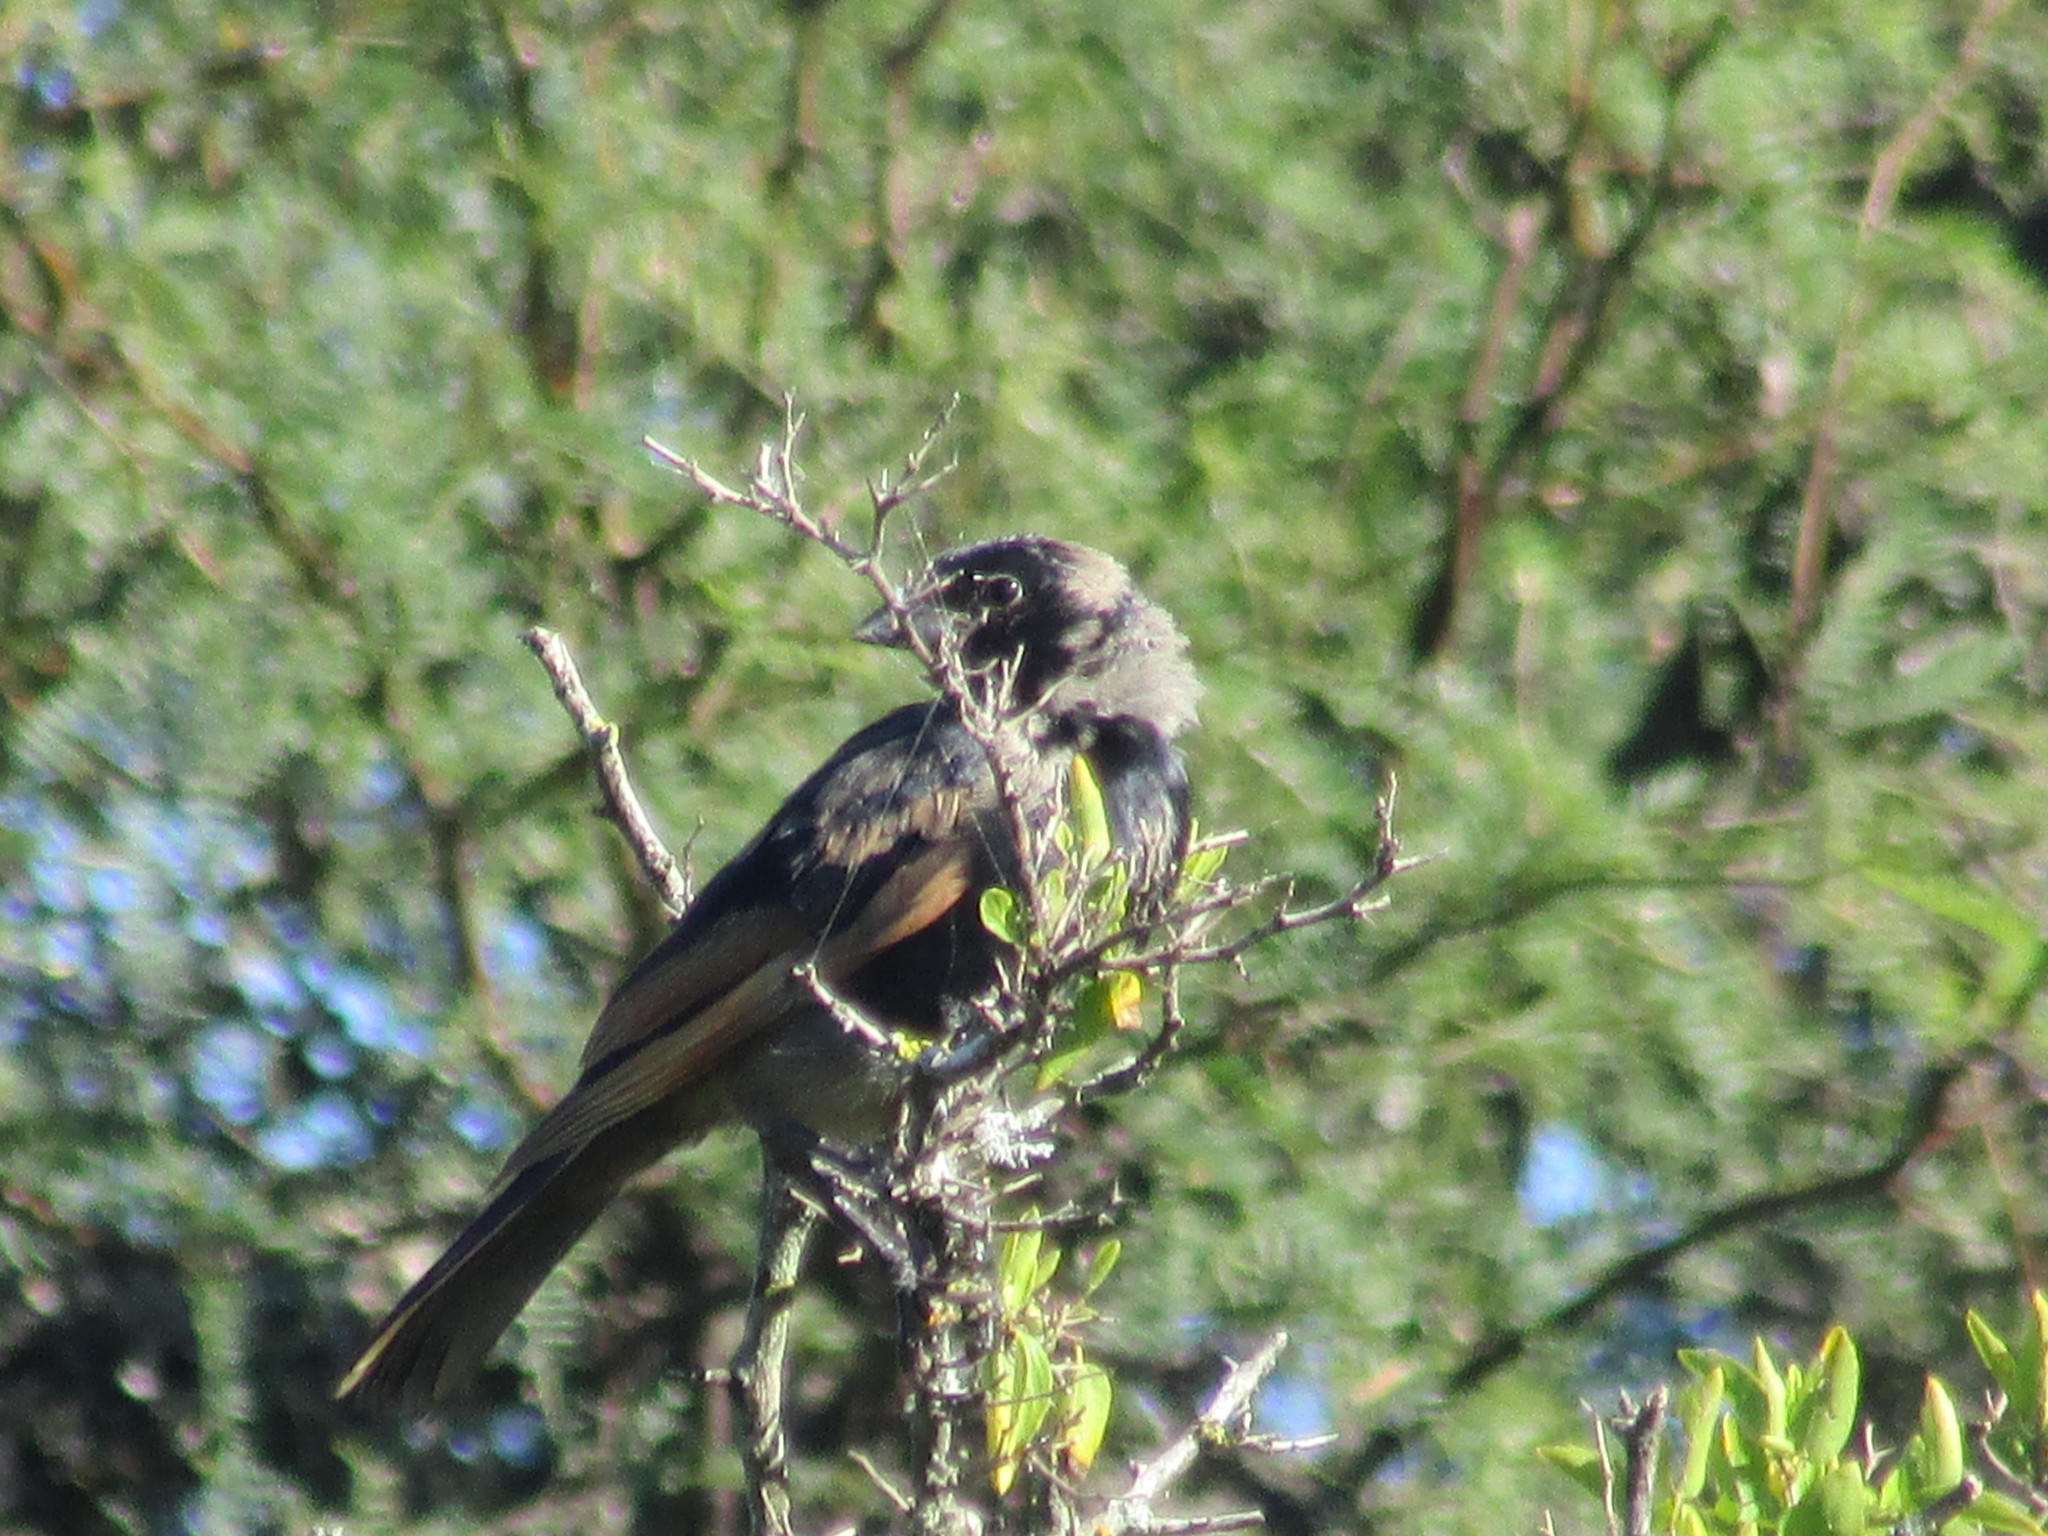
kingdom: Animalia
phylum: Chordata
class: Aves
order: Passeriformes
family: Icteridae
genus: Molothrus
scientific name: Molothrus rufoaxillaris
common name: Screaming cowbird
